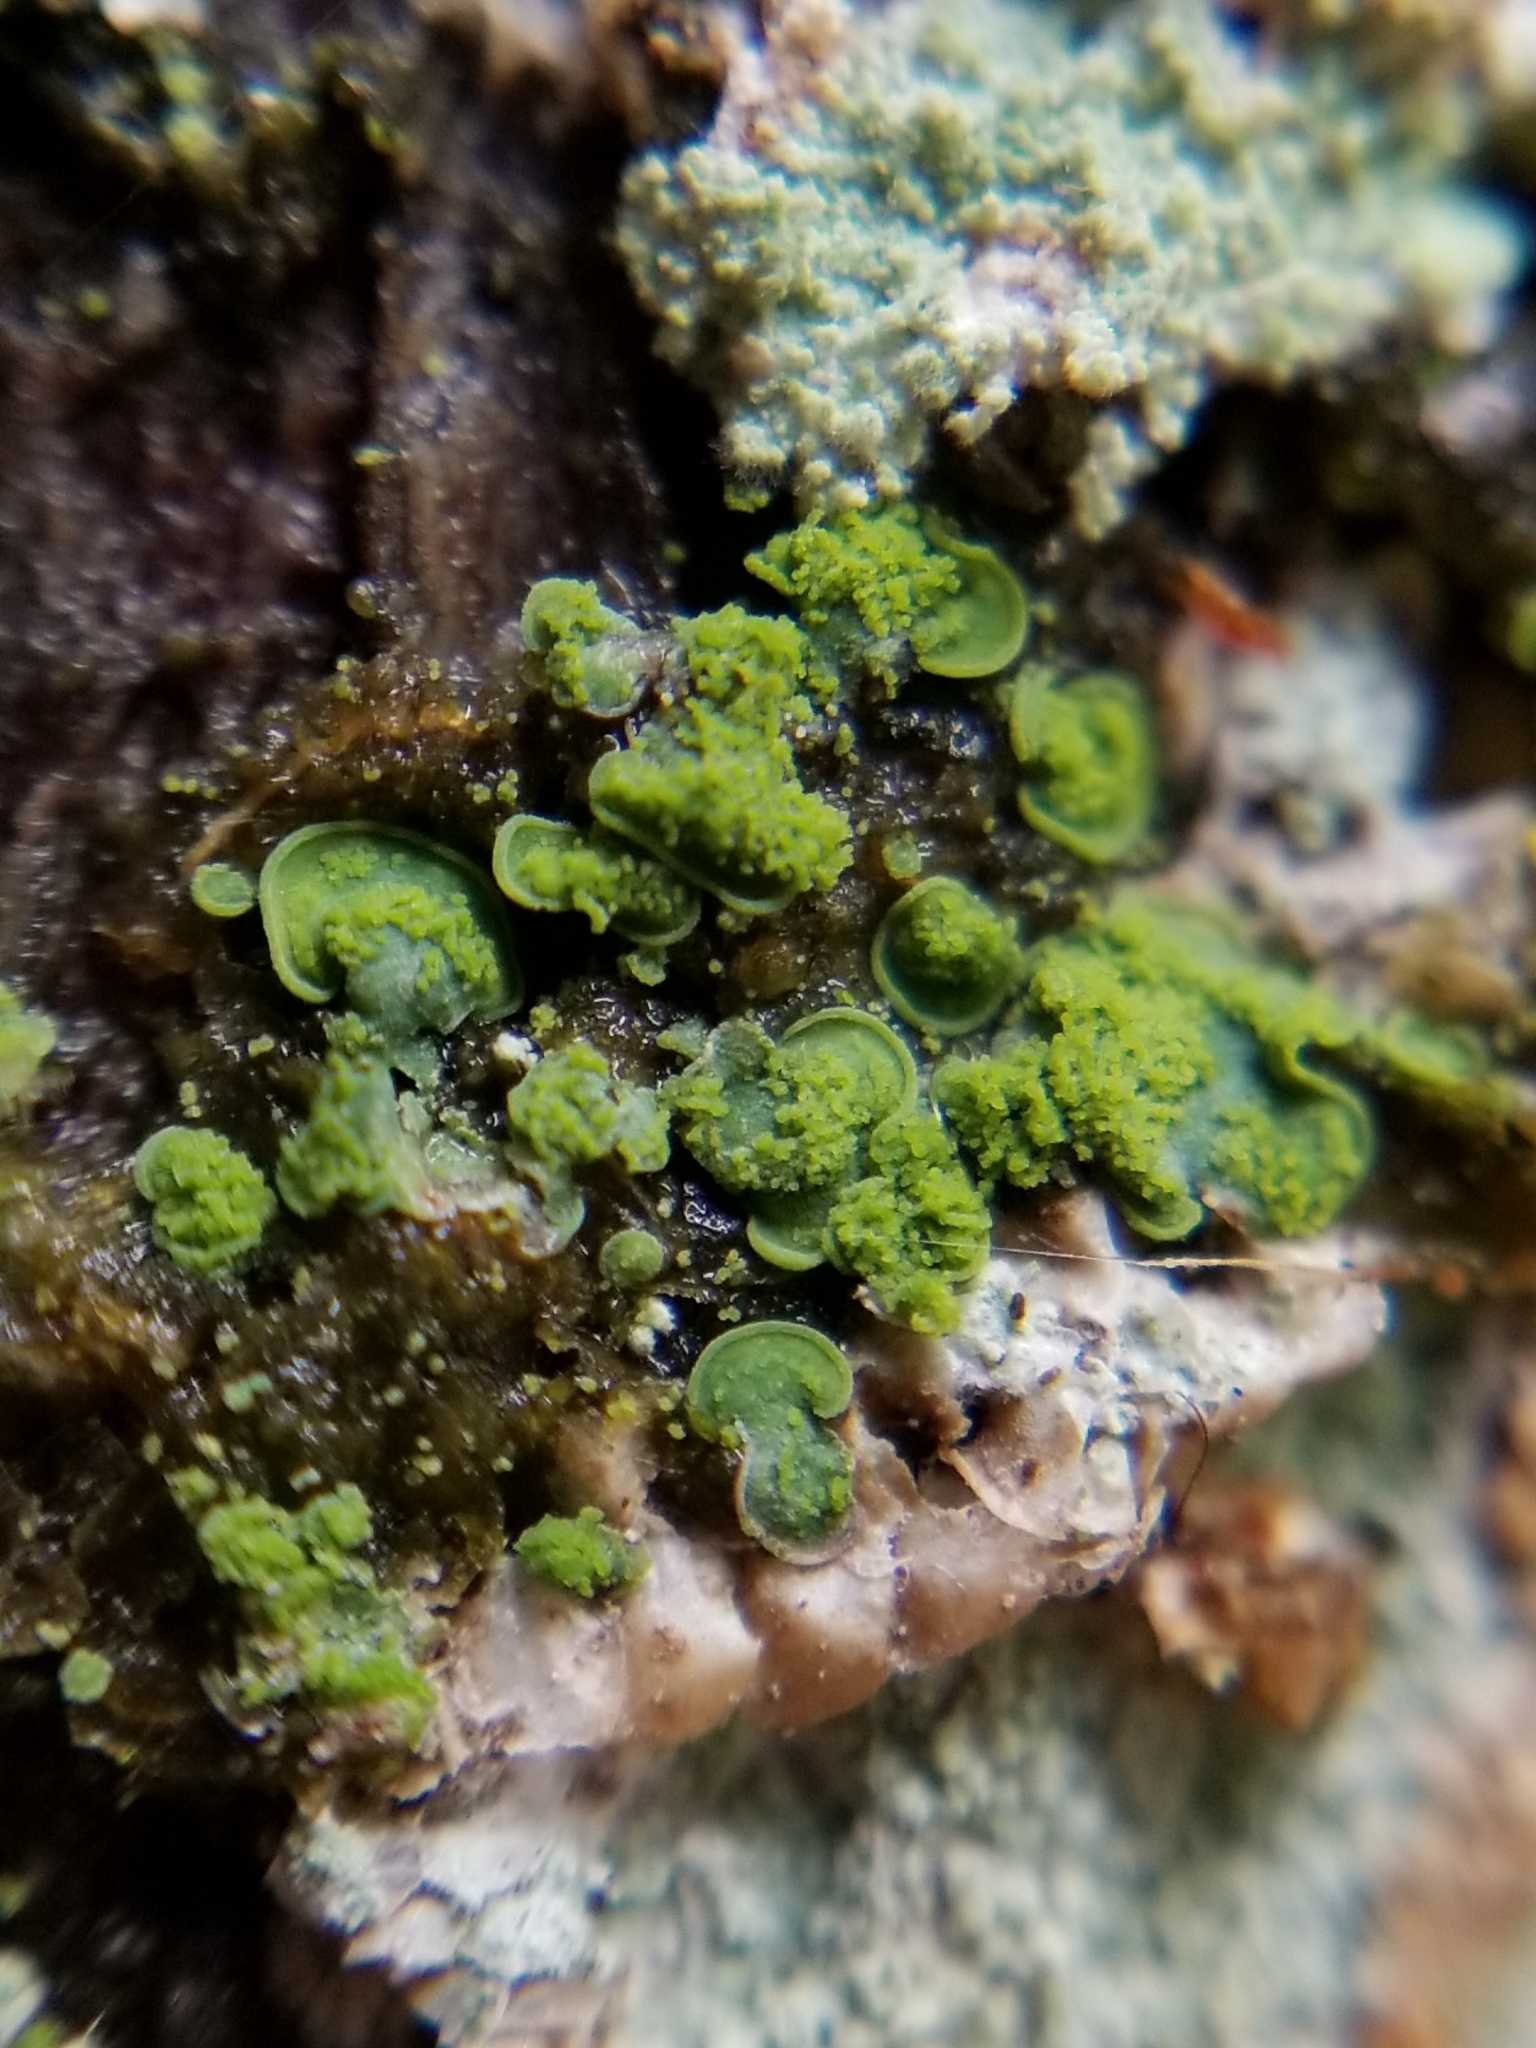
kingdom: Fungi
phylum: Ascomycota
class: Eurotiomycetes
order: Verrucariales
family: Verrucariaceae
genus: Normandina
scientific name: Normandina pulchella
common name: Elf ears lichen
